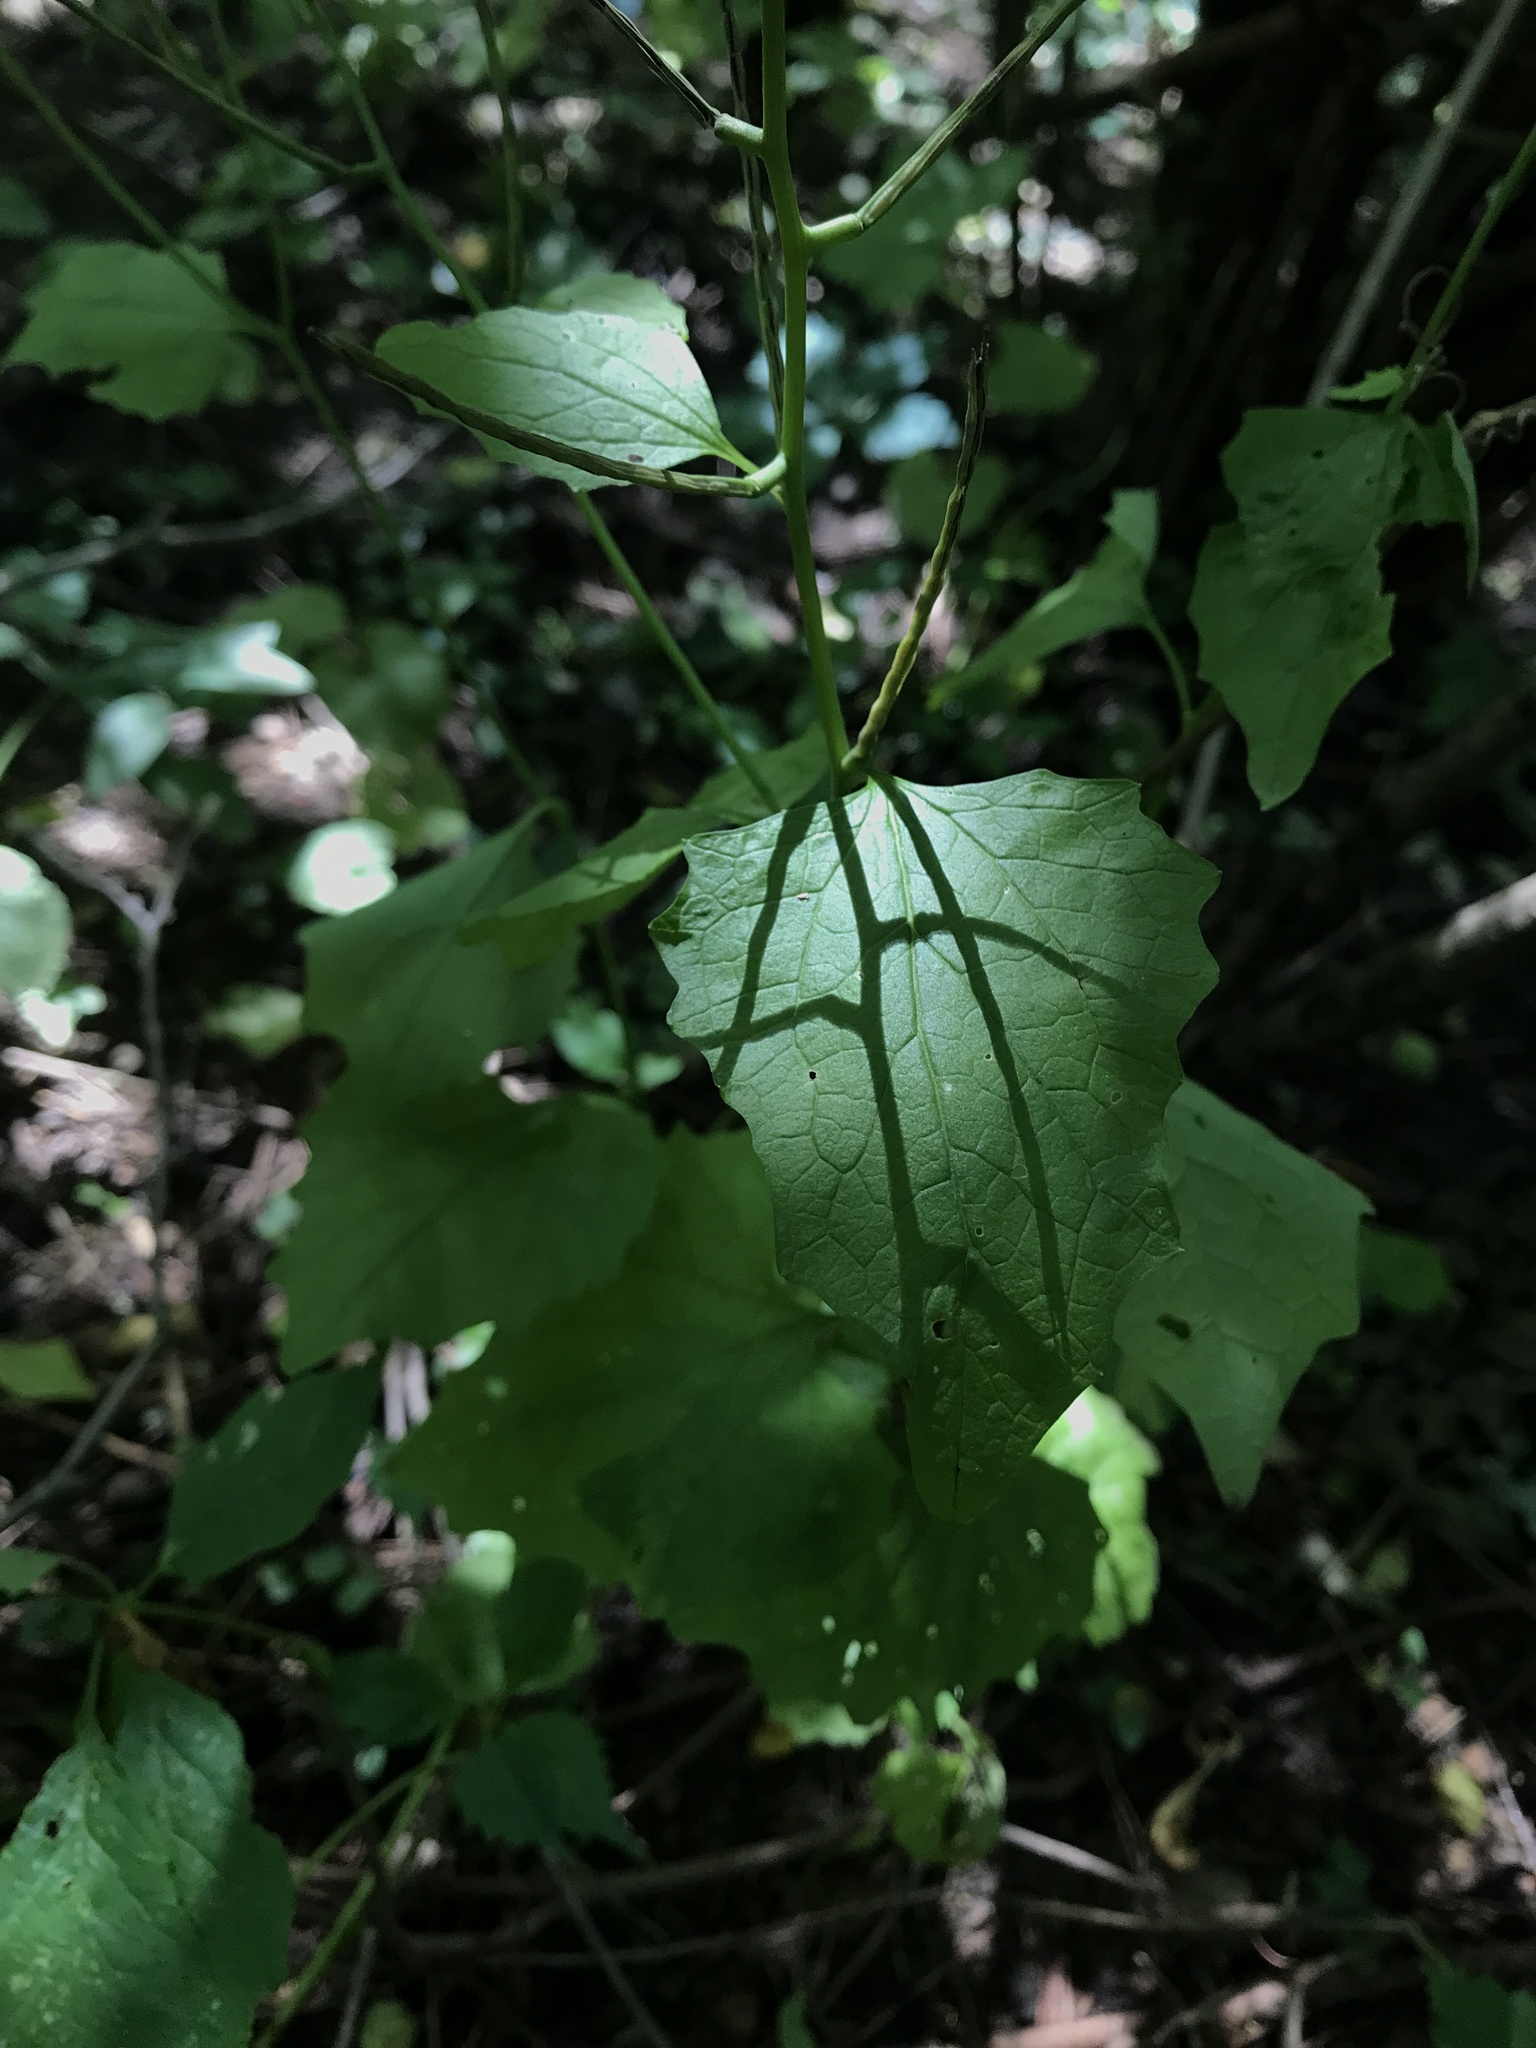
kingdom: Plantae
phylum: Tracheophyta
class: Magnoliopsida
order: Brassicales
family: Brassicaceae
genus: Hesperis
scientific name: Hesperis matronalis
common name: Dame's-violet
